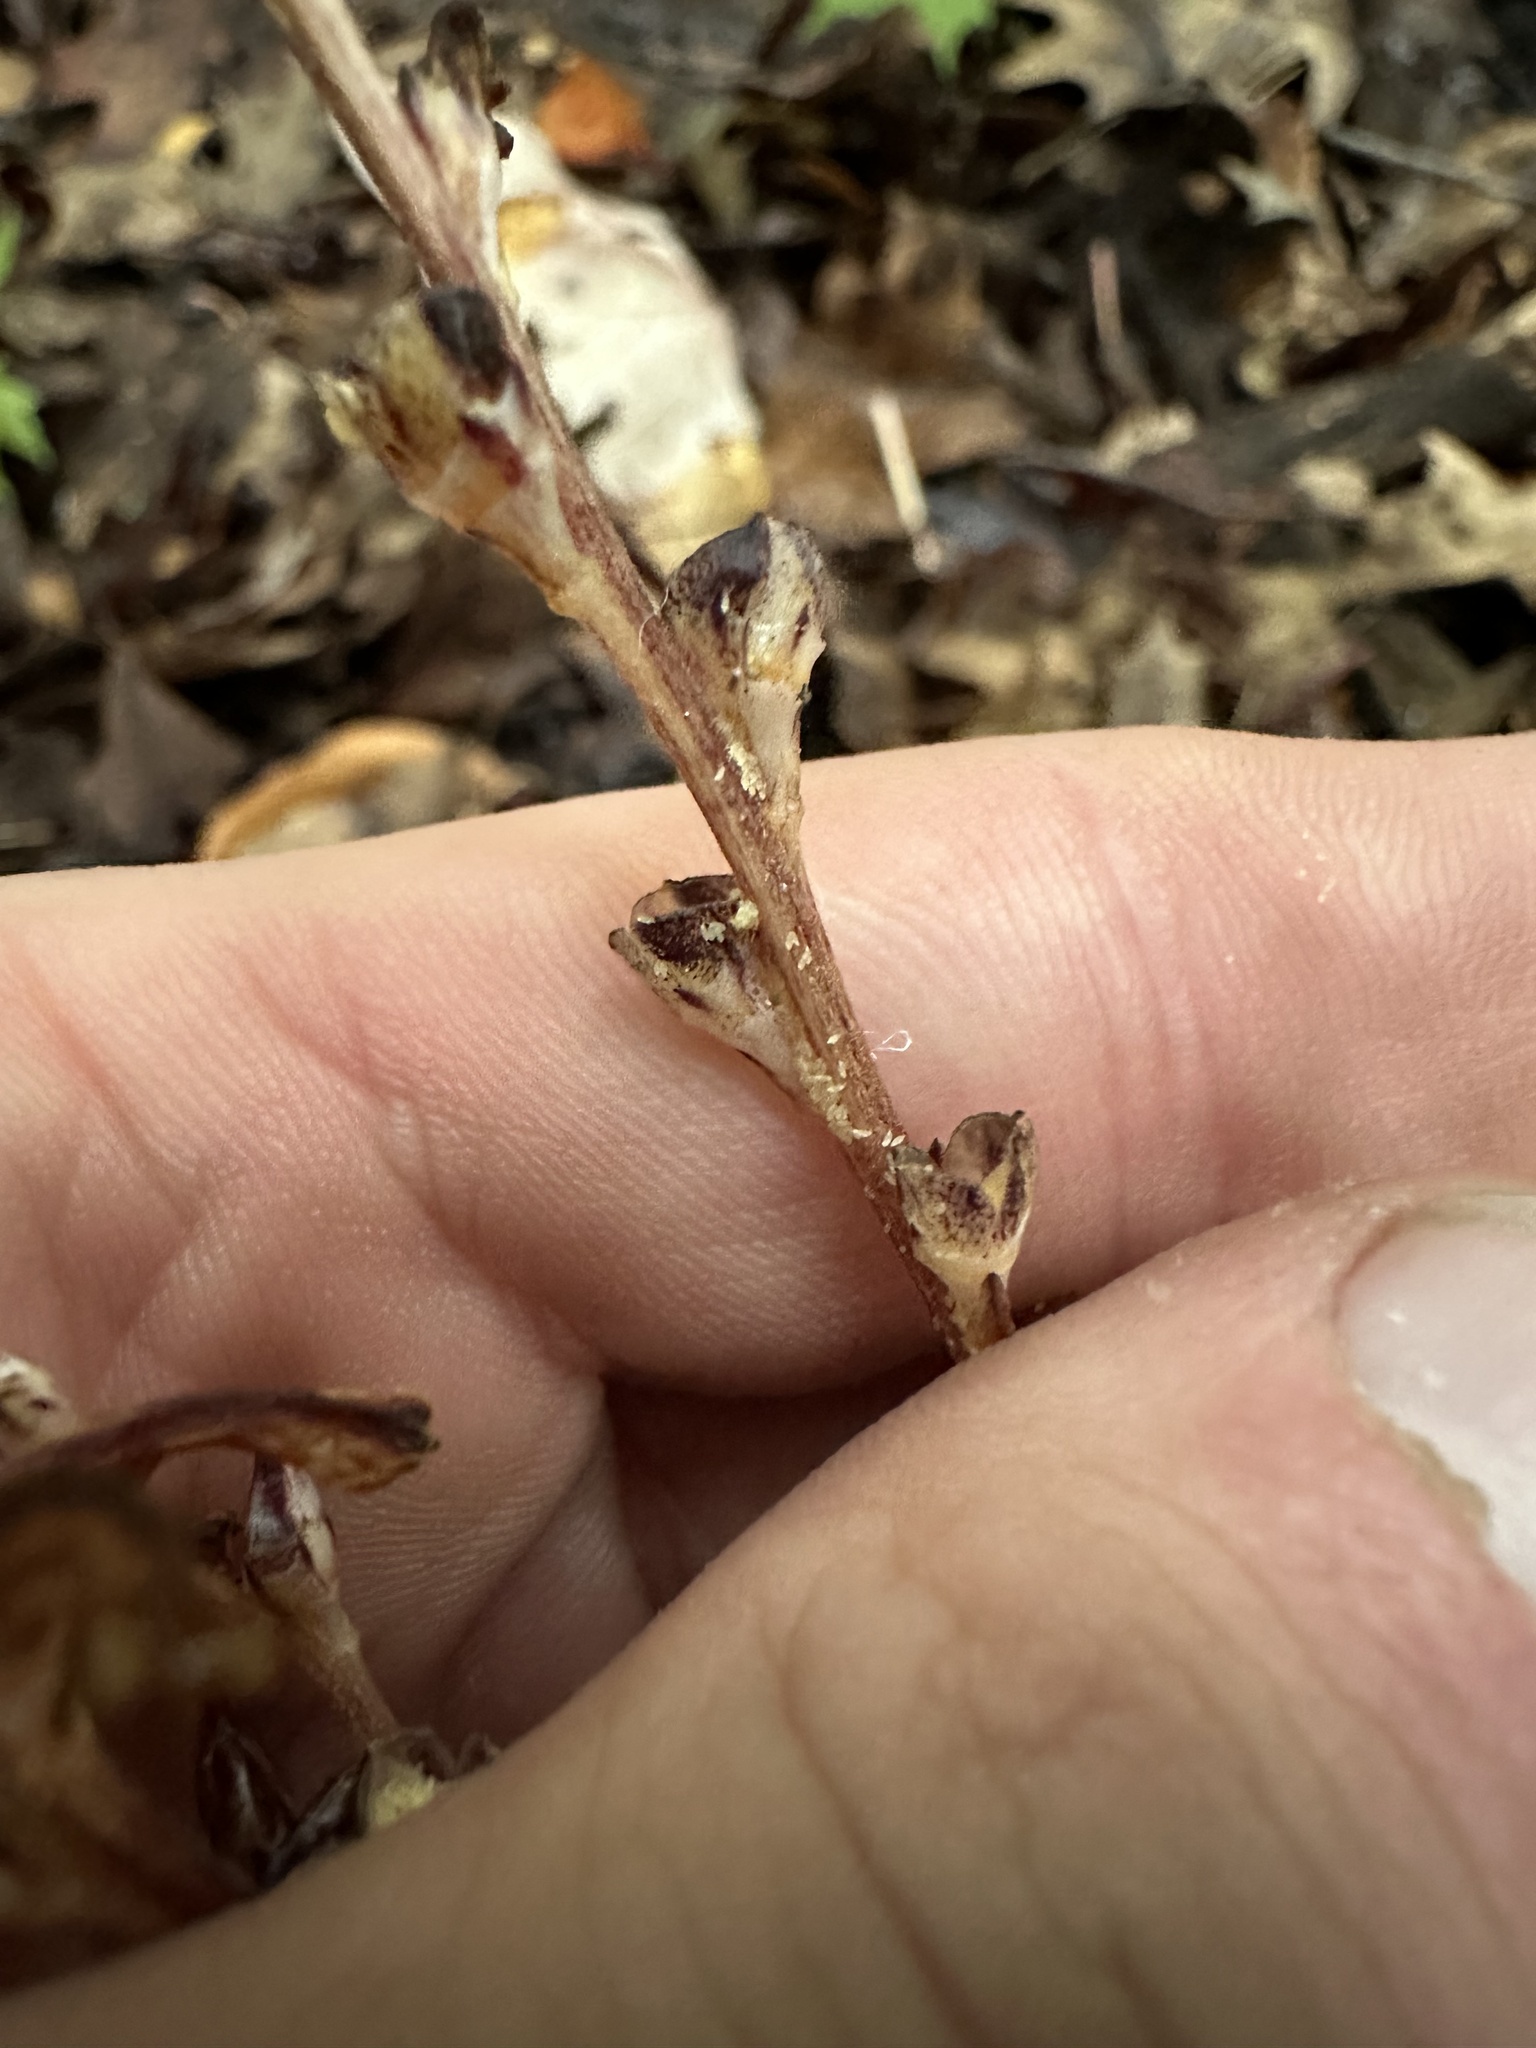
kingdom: Plantae
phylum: Tracheophyta
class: Magnoliopsida
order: Lamiales
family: Orobanchaceae
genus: Epifagus
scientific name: Epifagus virginiana
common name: Beechdrops
